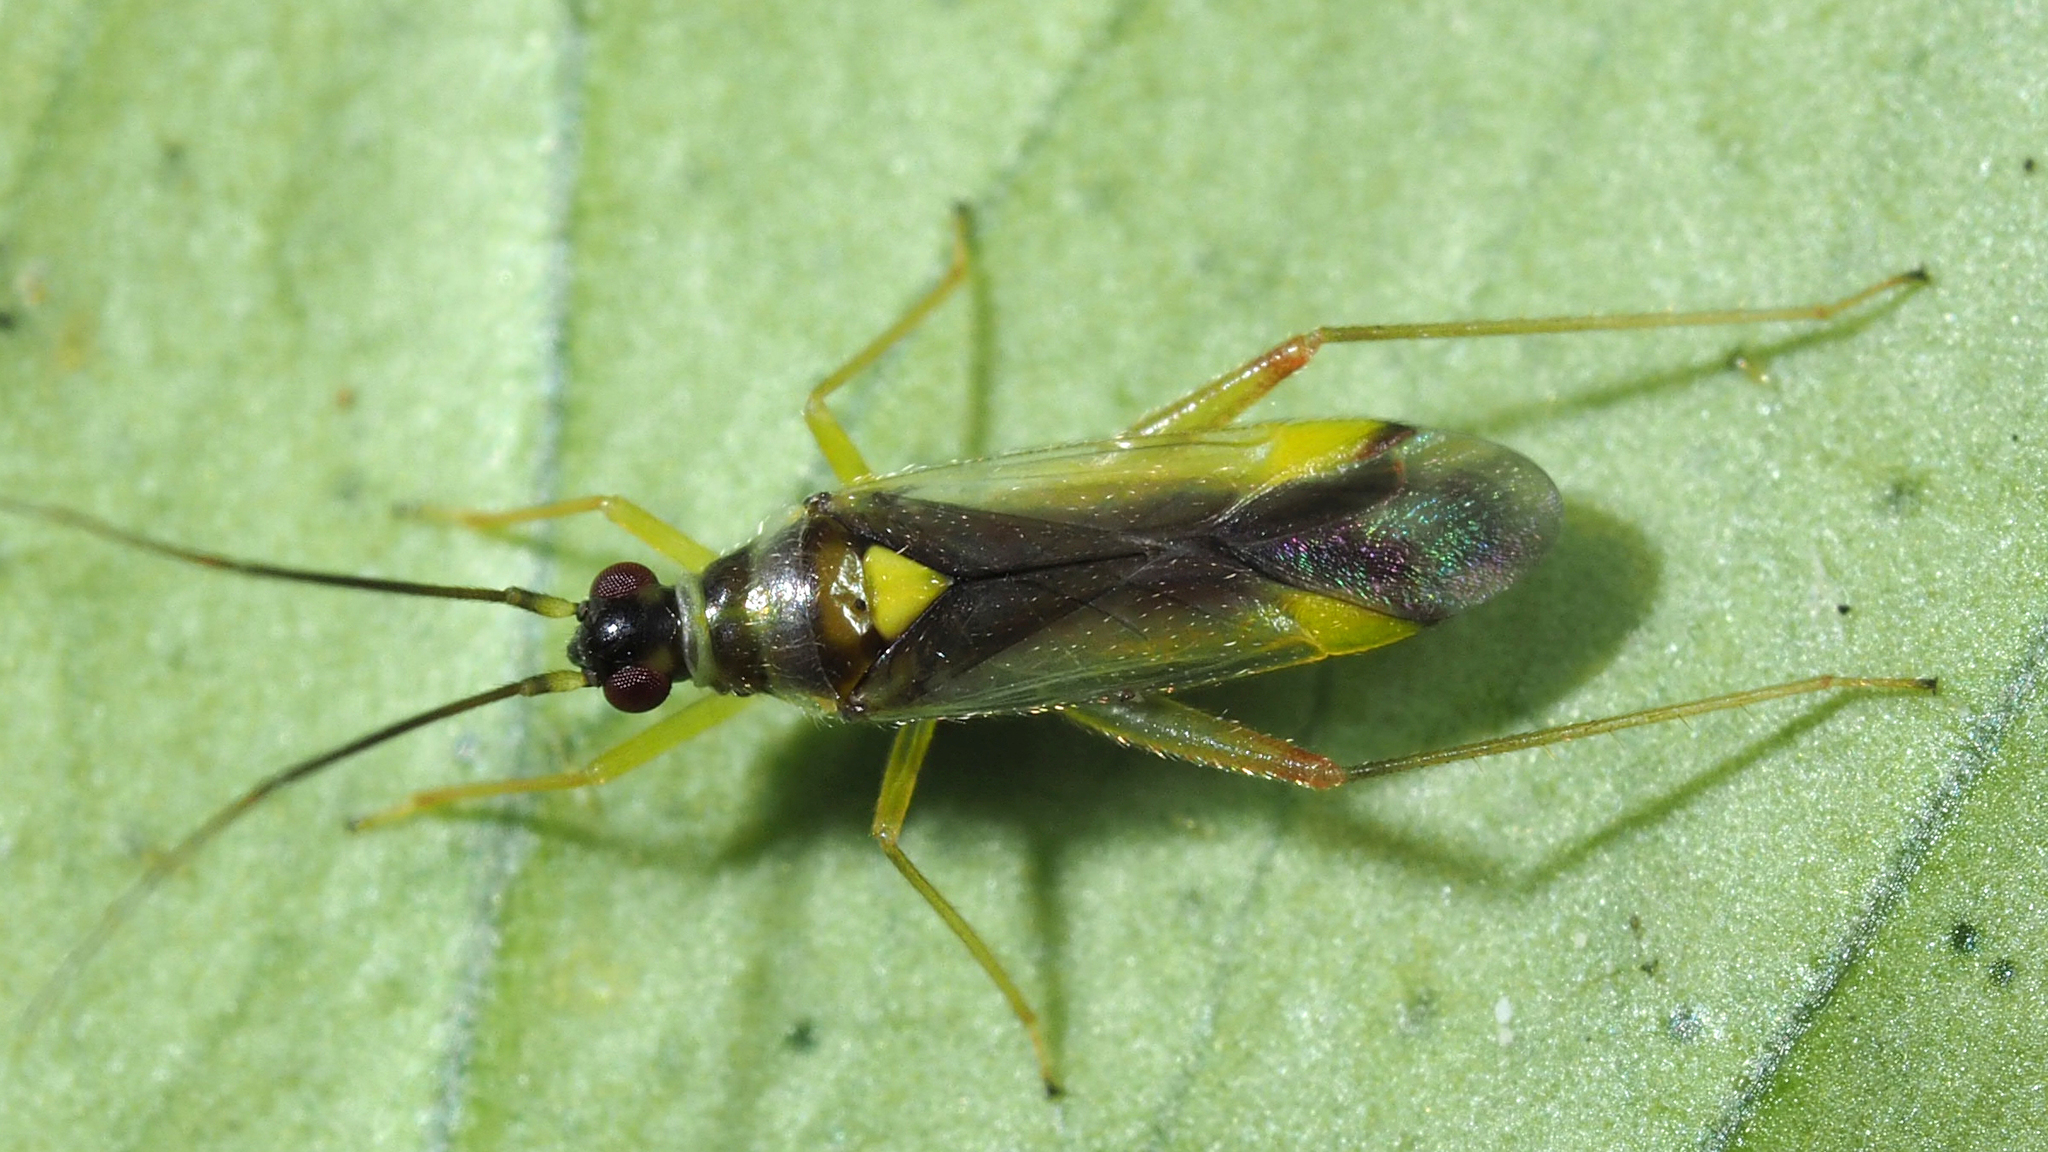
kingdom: Animalia
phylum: Arthropoda
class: Insecta
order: Hemiptera
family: Miridae
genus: Campyloneura
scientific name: Campyloneura virgula
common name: Predatory bug
